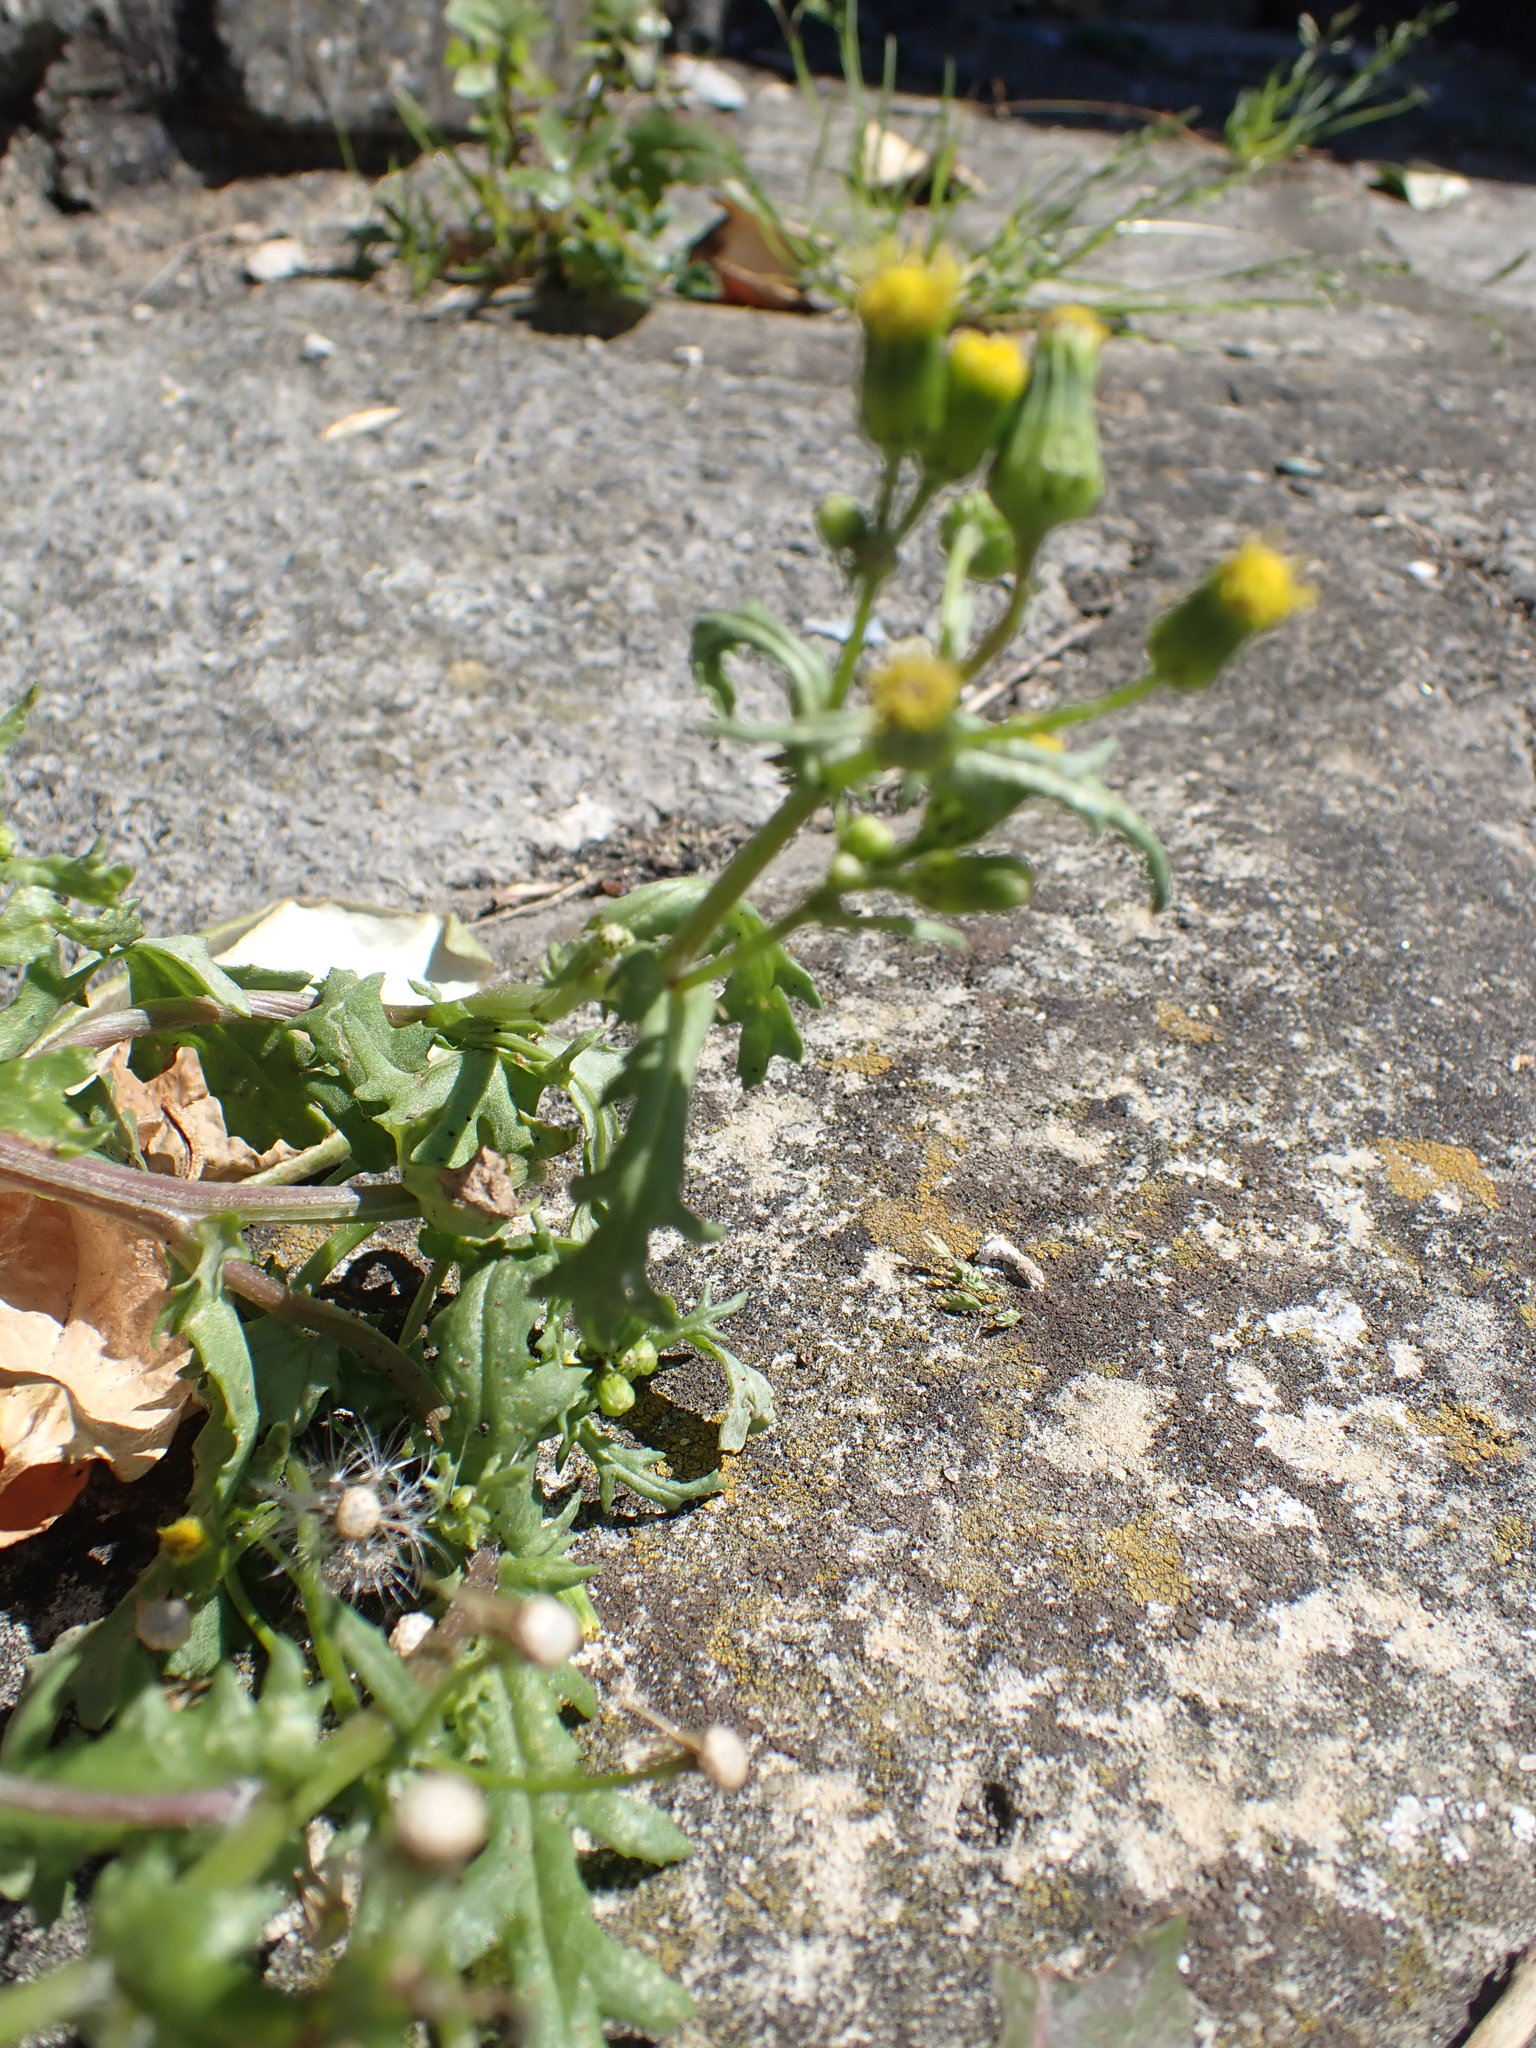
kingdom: Plantae
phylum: Tracheophyta
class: Magnoliopsida
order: Asterales
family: Asteraceae
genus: Senecio
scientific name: Senecio vulgaris
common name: Old-man-in-the-spring
